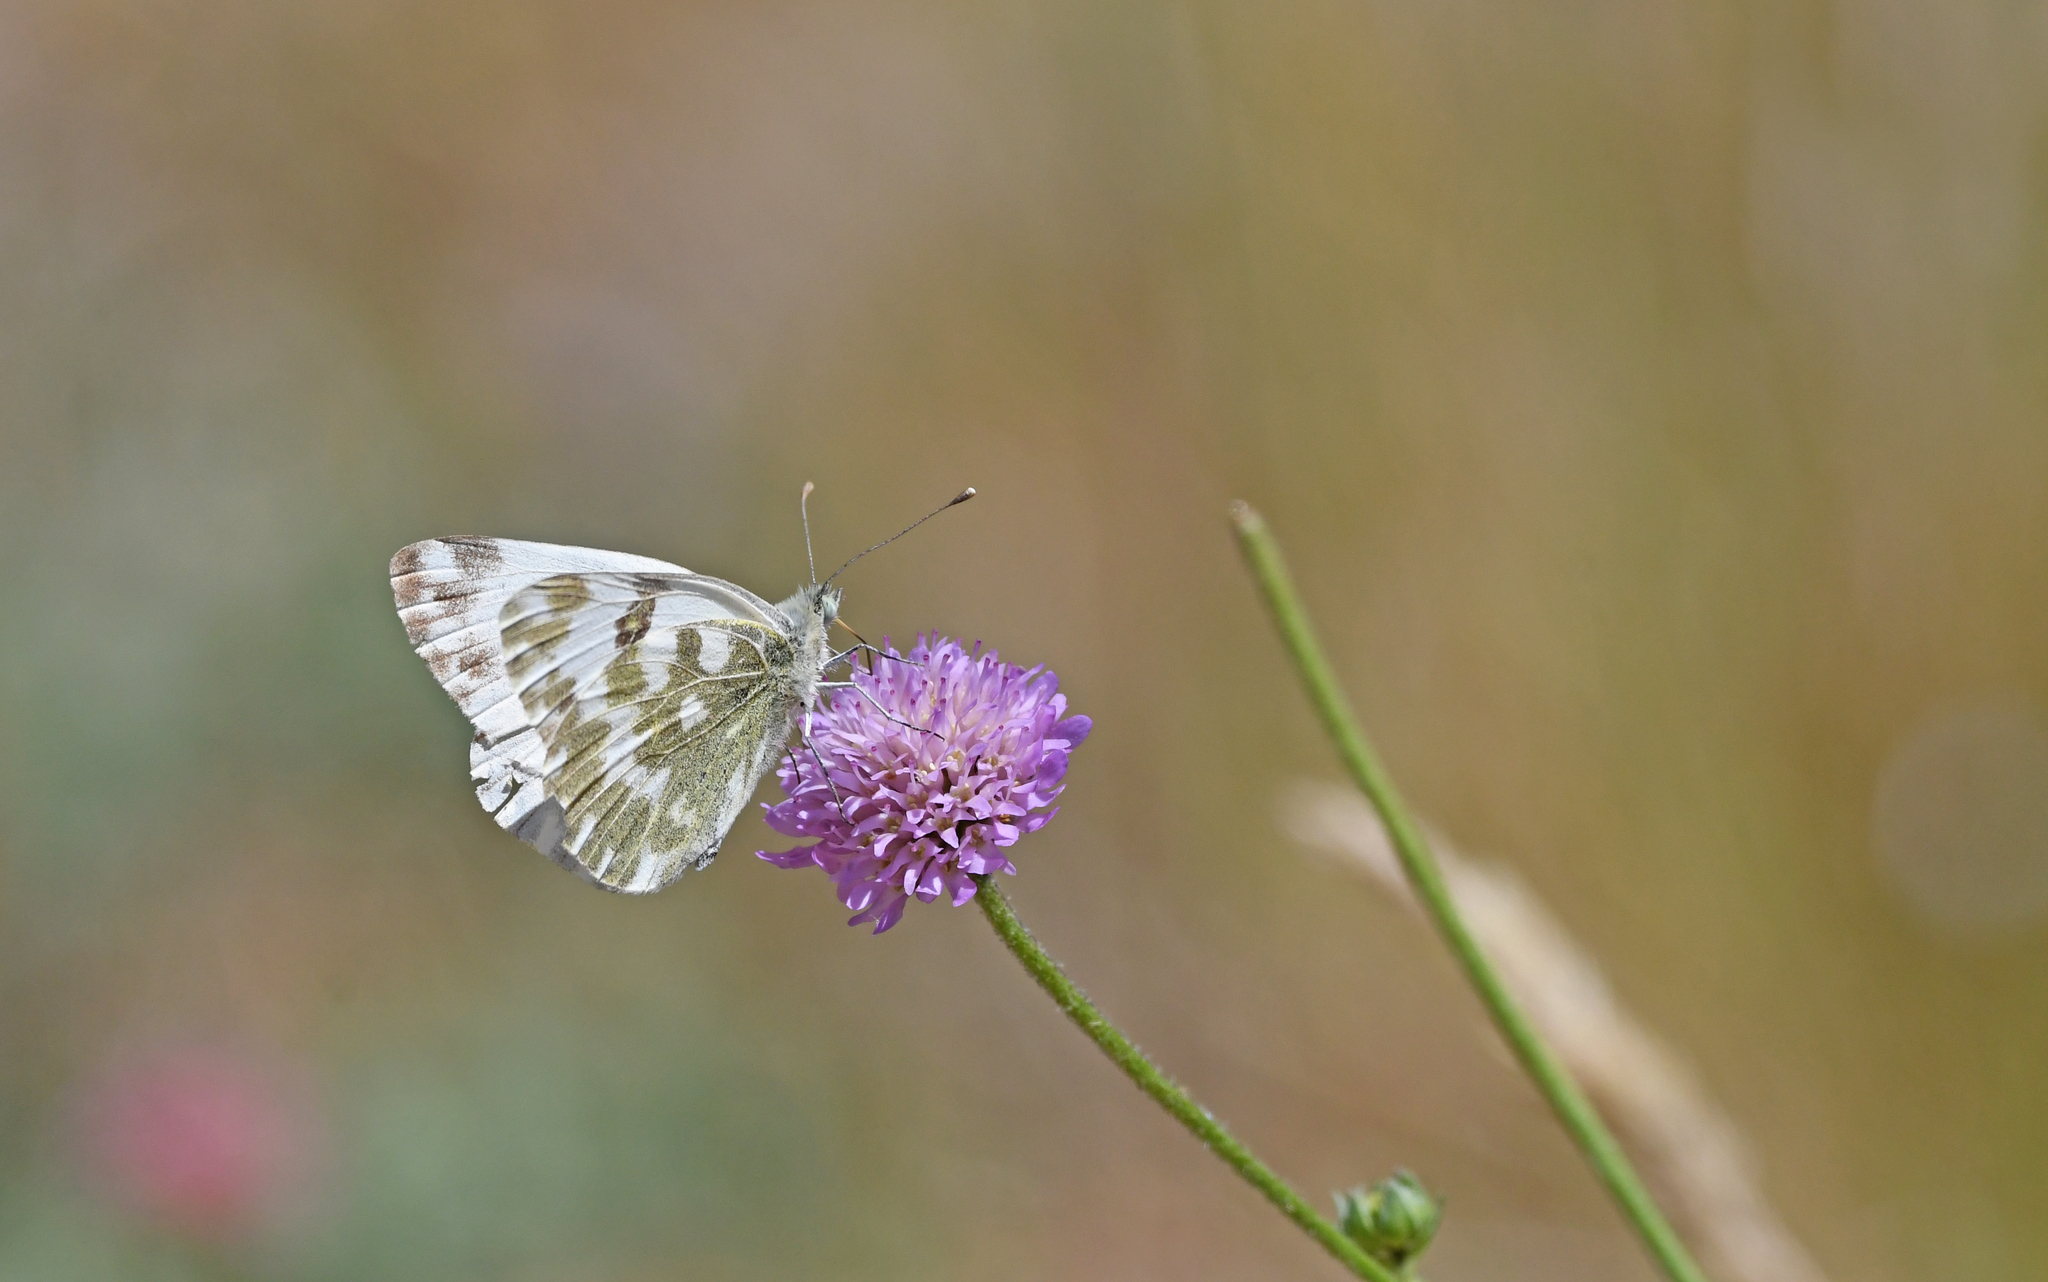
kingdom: Animalia
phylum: Arthropoda
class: Insecta
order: Lepidoptera
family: Pieridae
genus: Pontia
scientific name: Pontia daplidice
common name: Bath white
